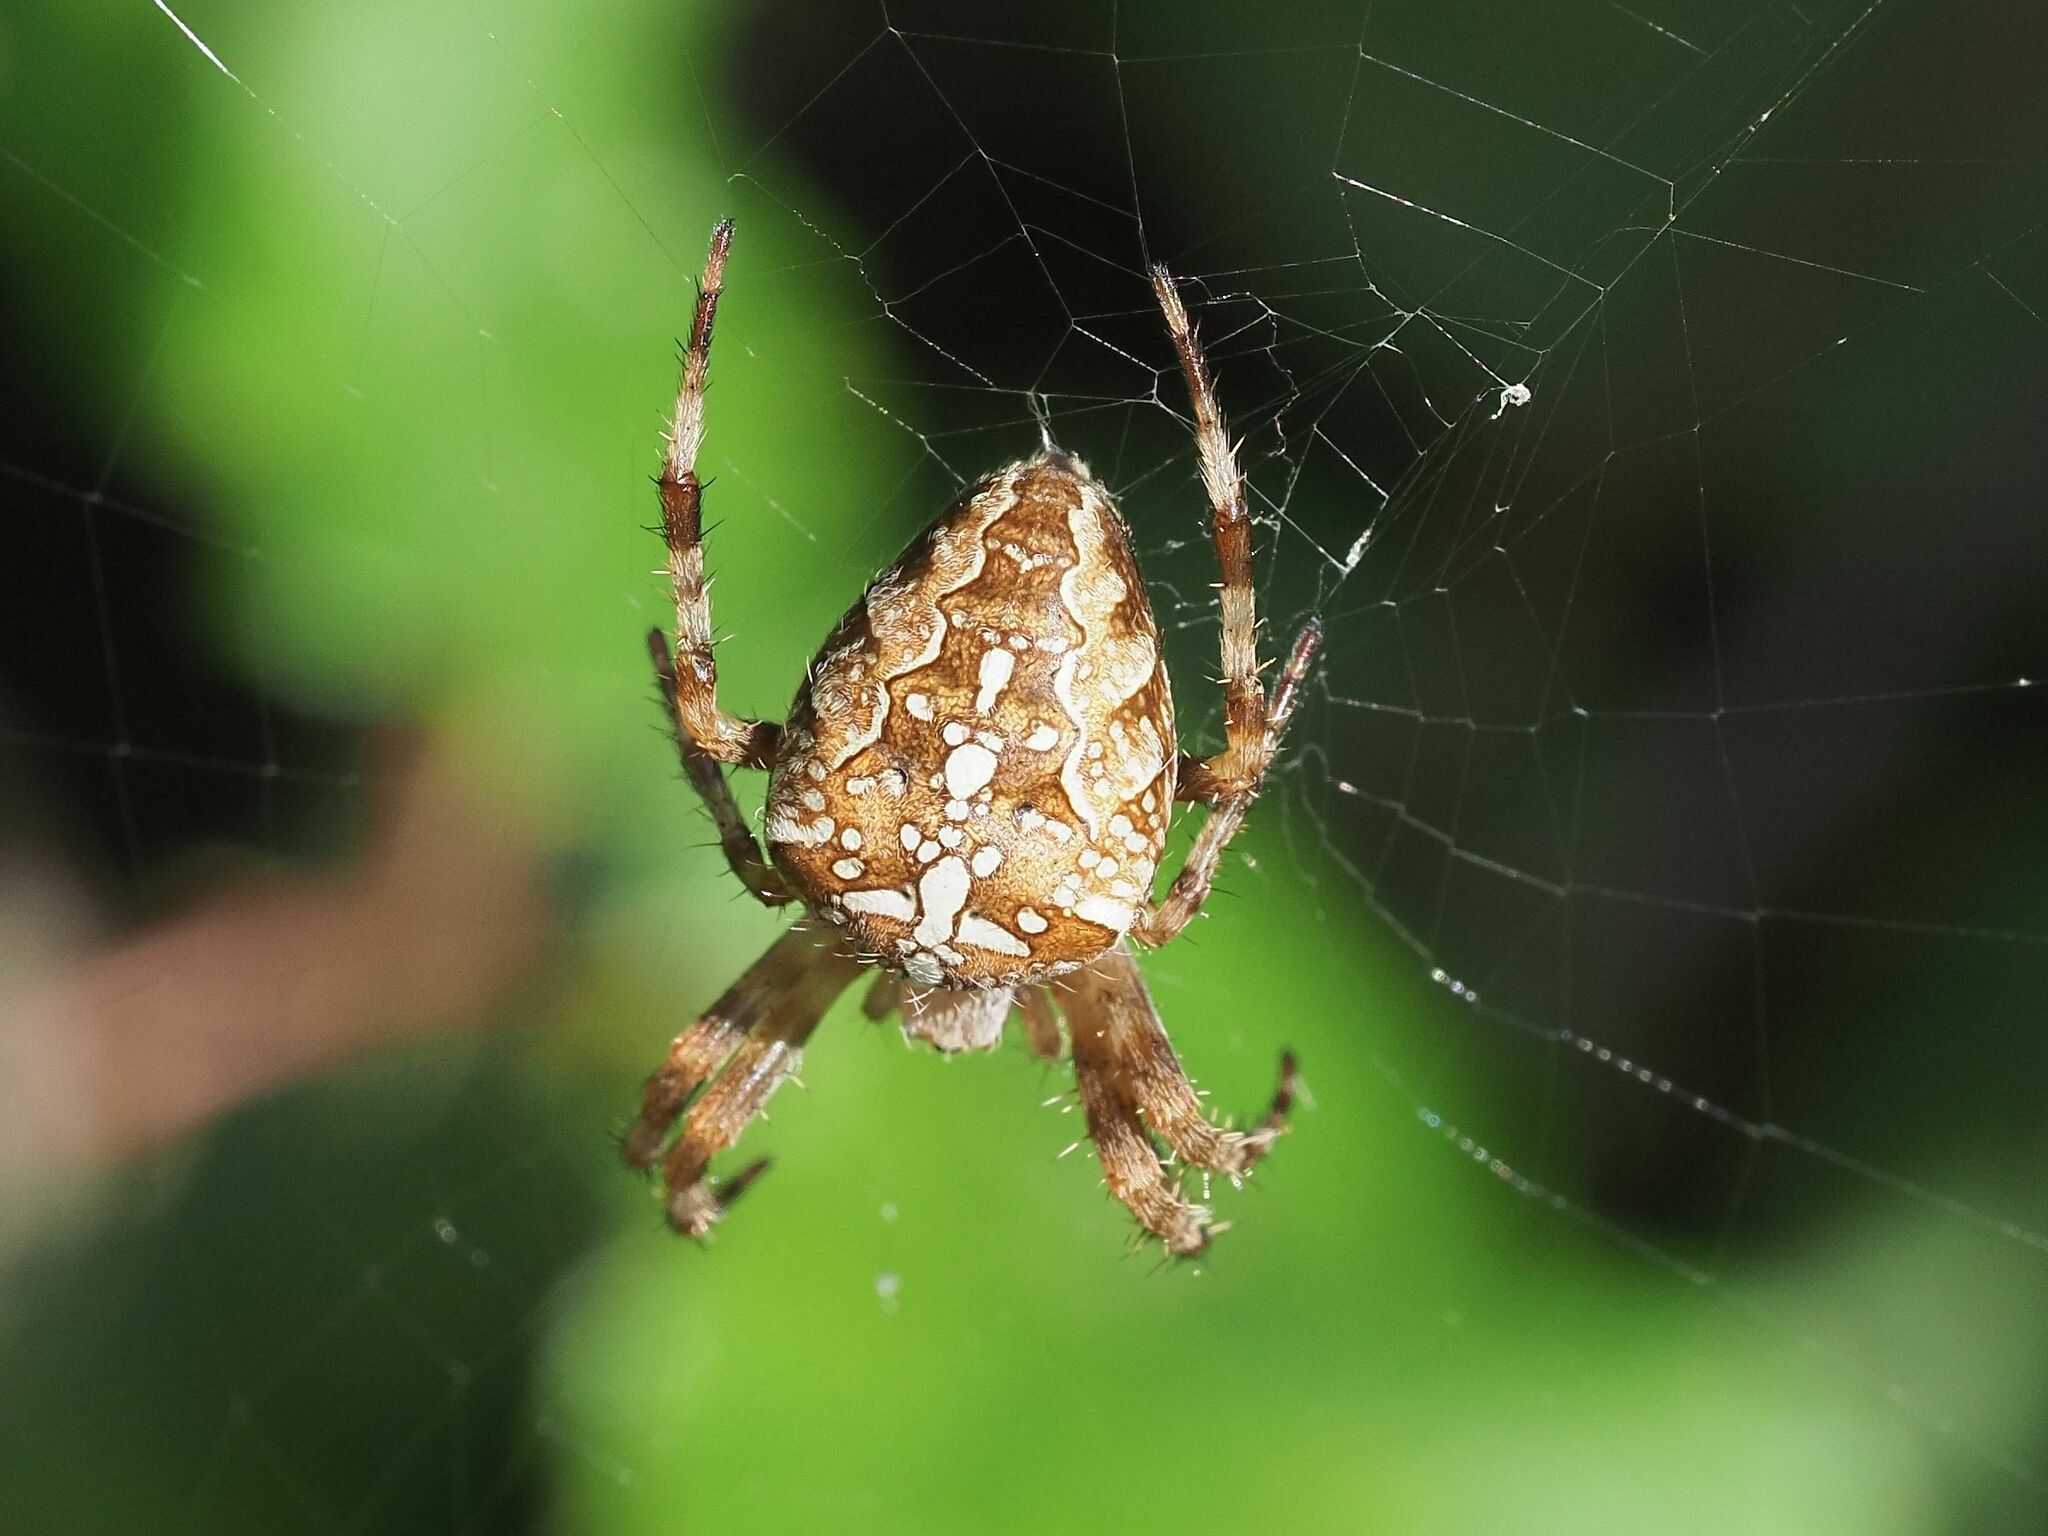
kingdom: Animalia
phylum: Arthropoda
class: Arachnida
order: Araneae
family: Araneidae
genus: Araneus
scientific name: Araneus diadematus
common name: Cross orbweaver
